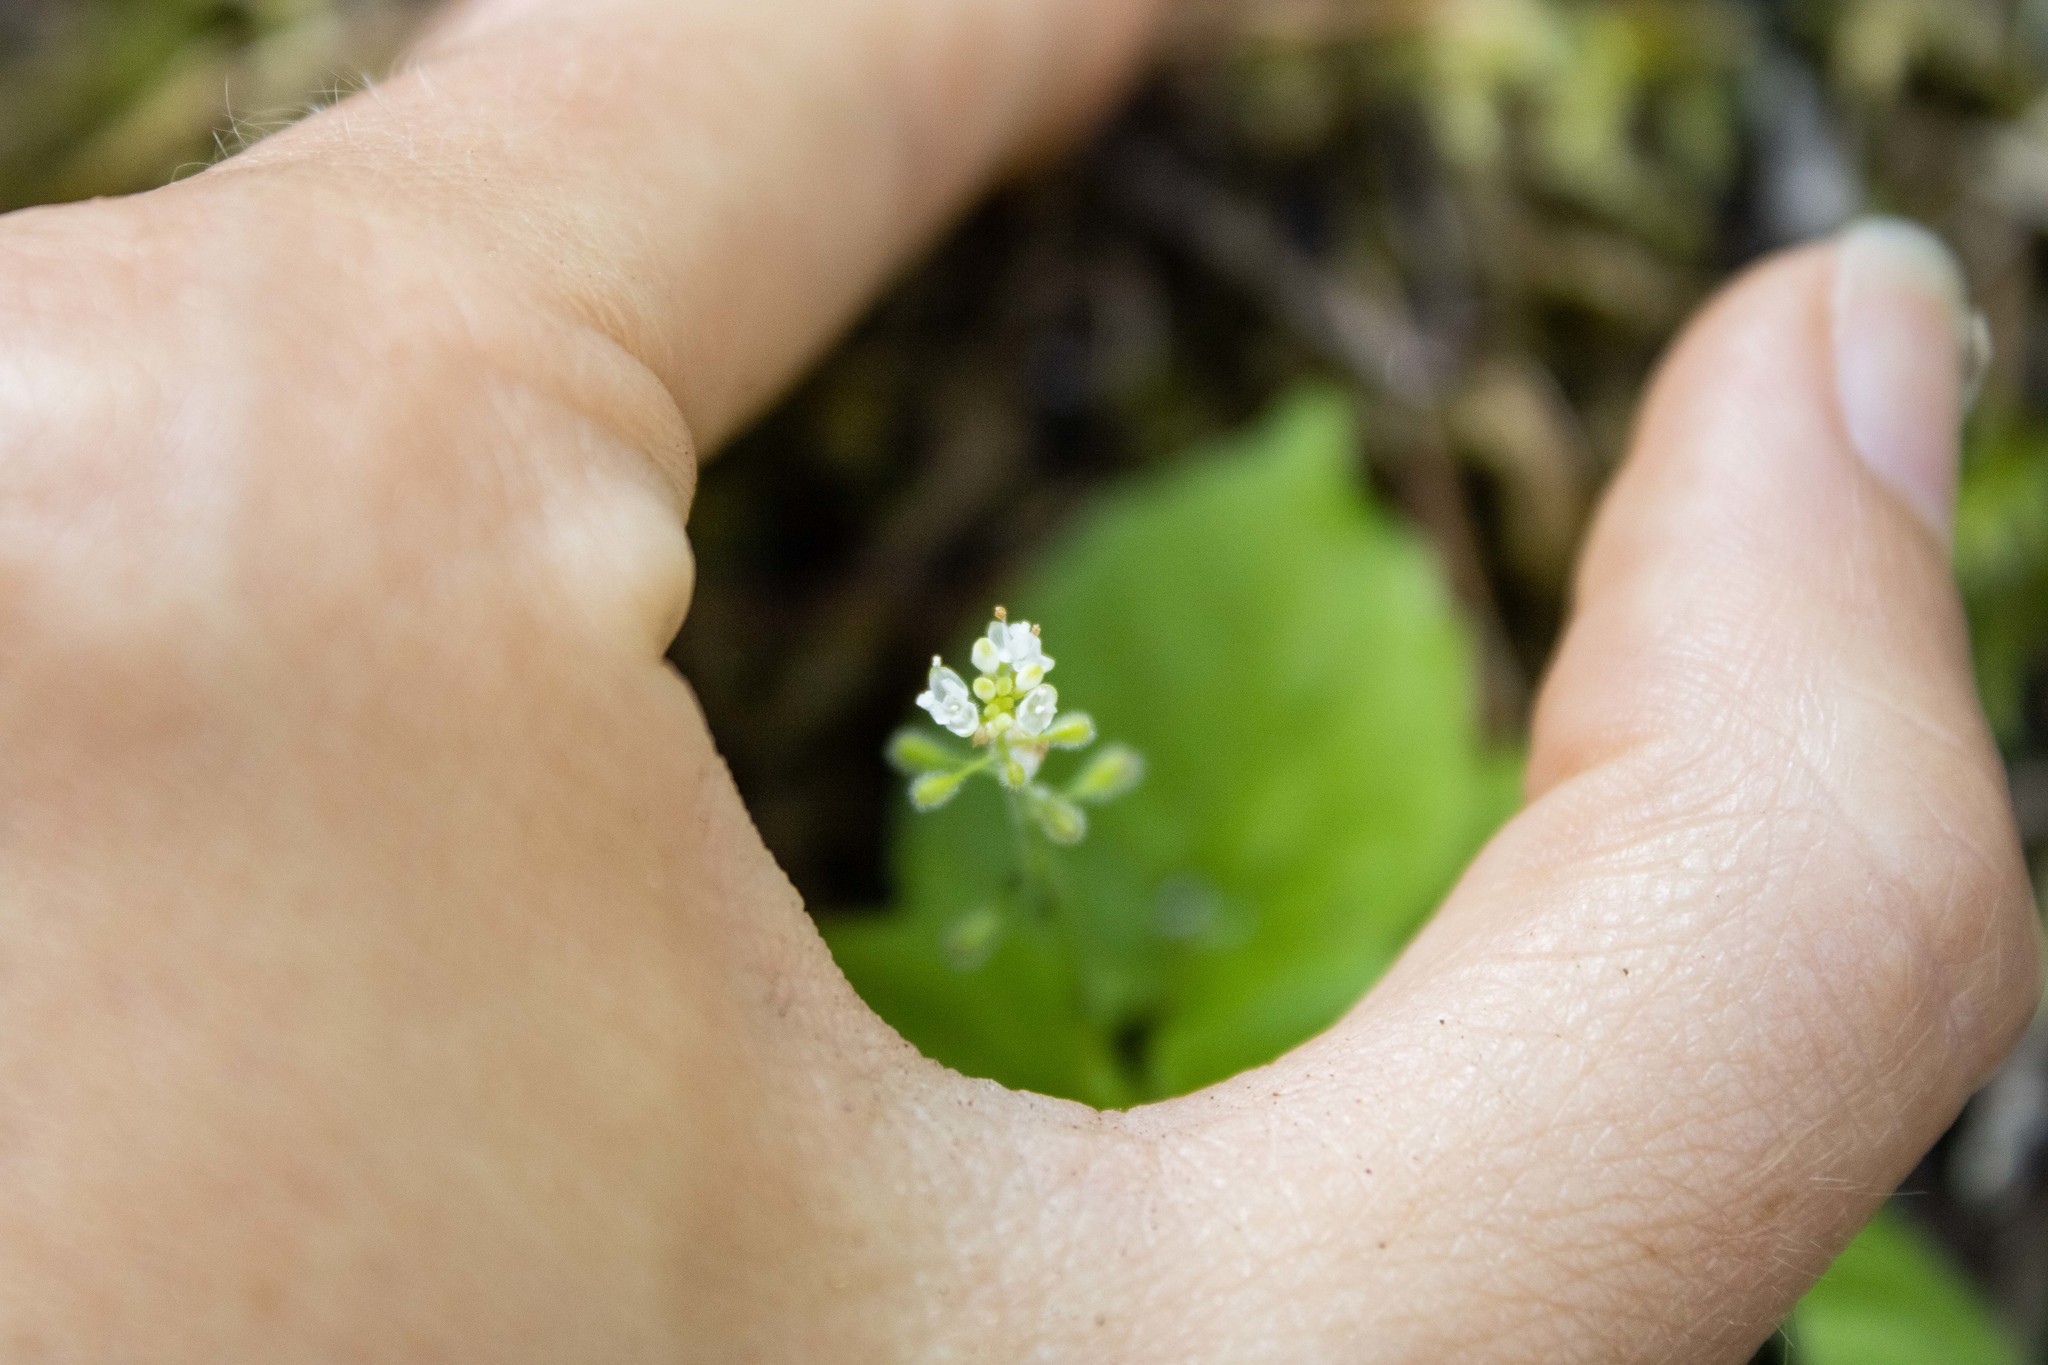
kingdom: Plantae
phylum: Tracheophyta
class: Magnoliopsida
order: Myrtales
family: Onagraceae
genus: Circaea
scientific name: Circaea alpina
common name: Alpine enchanter's-nightshade
